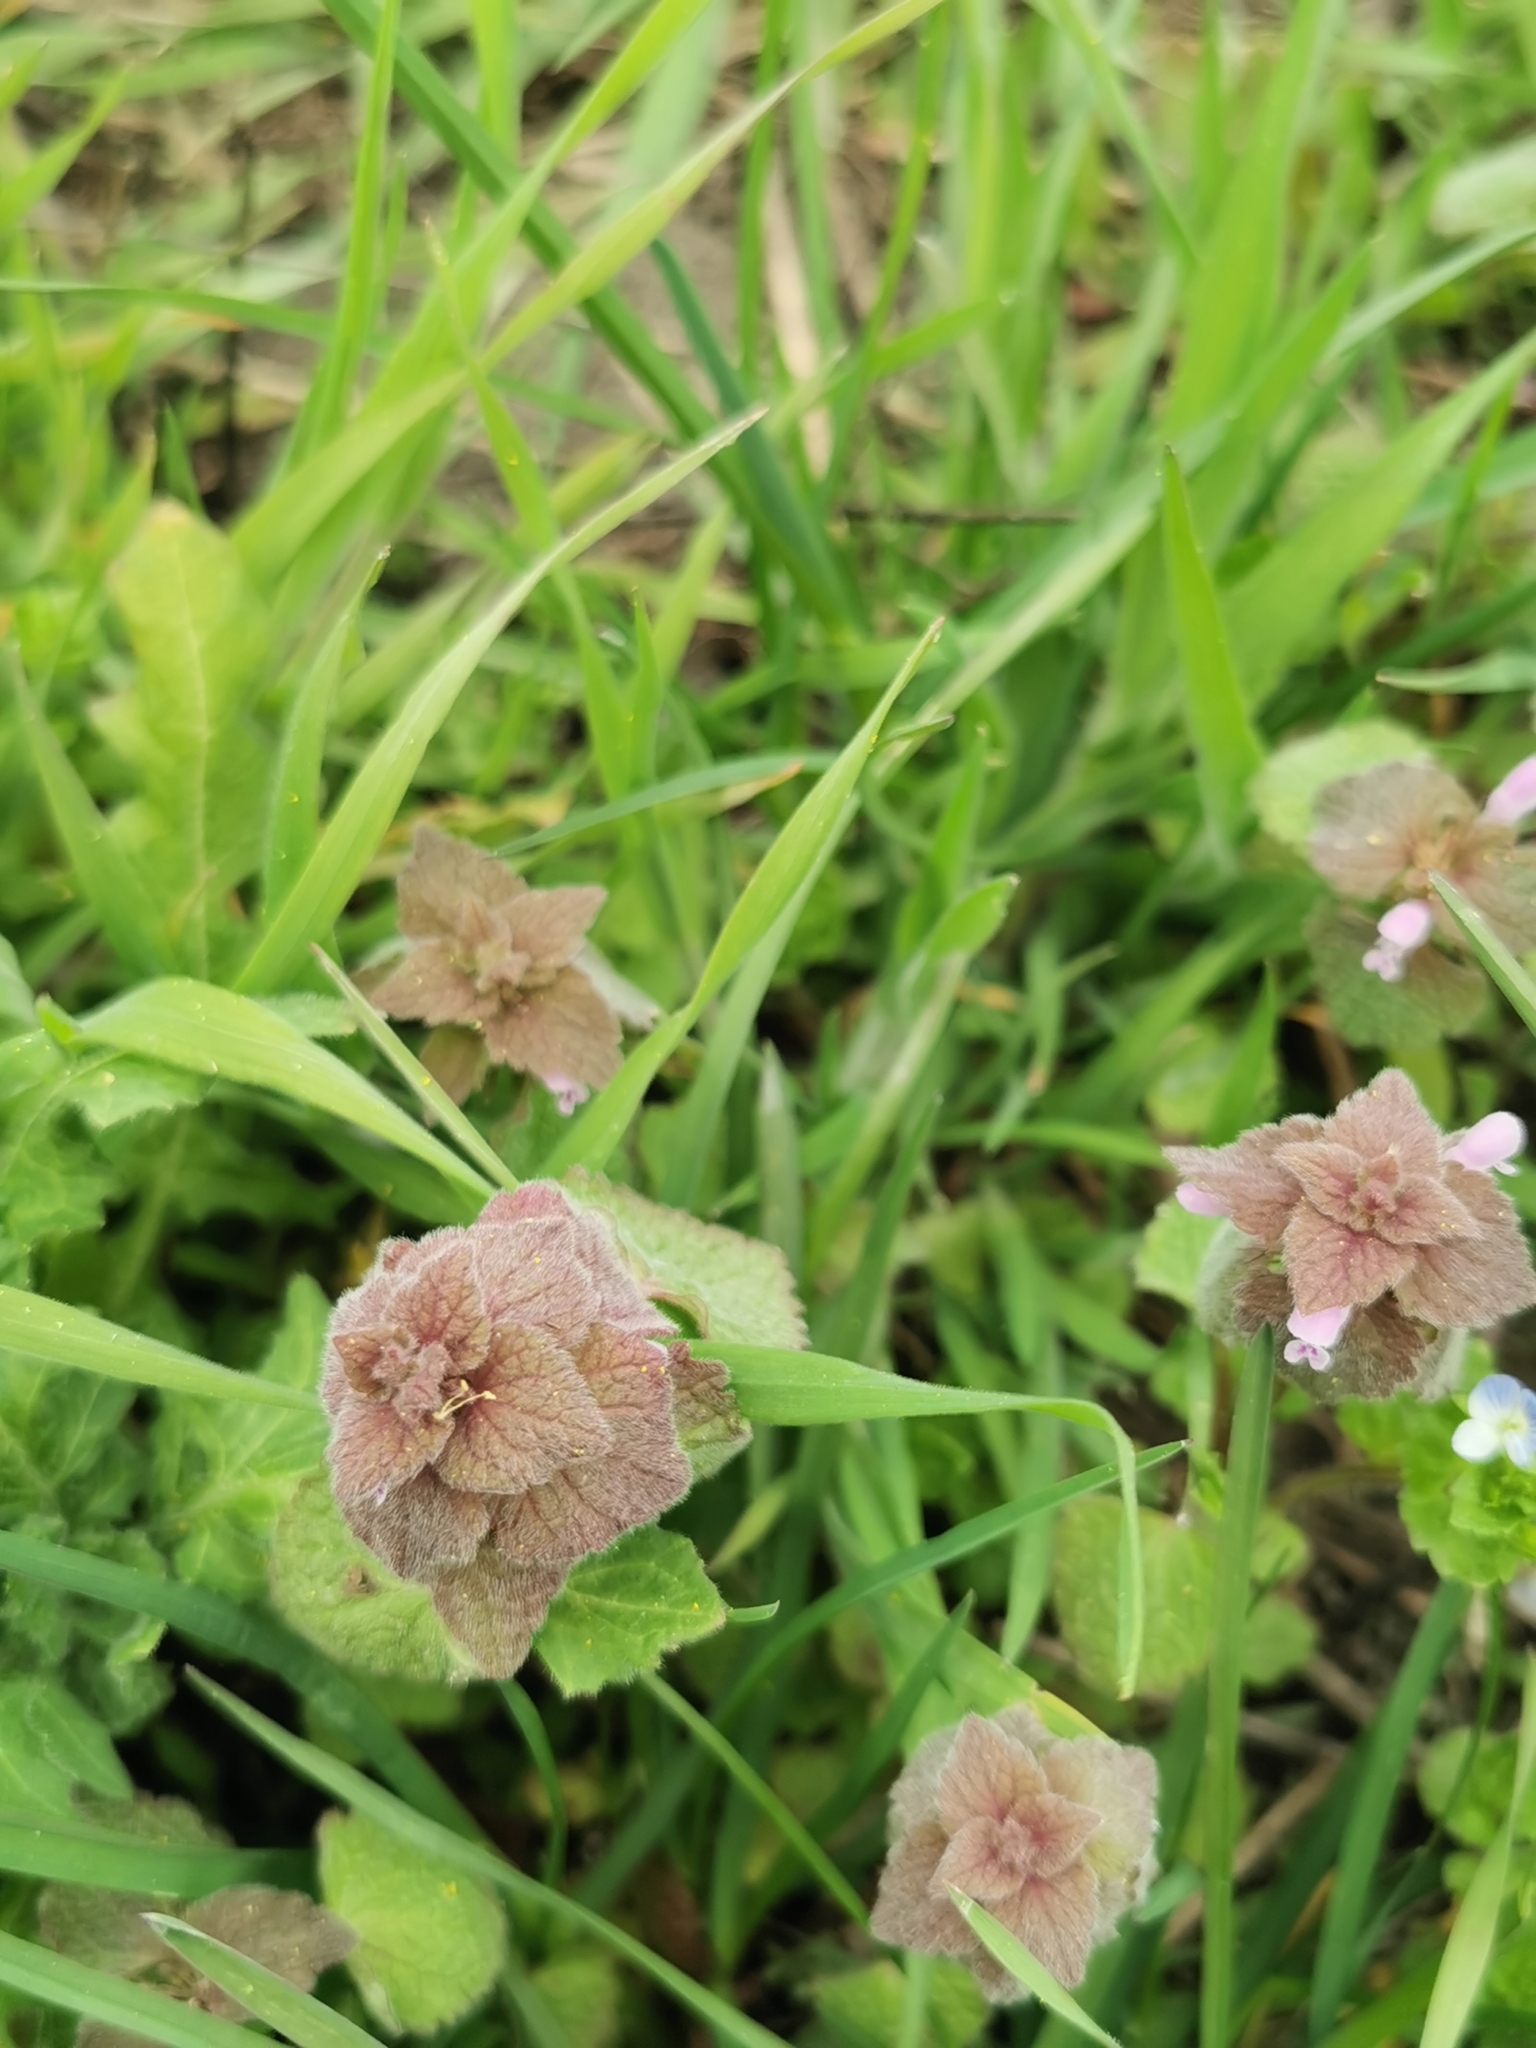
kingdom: Plantae
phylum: Tracheophyta
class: Magnoliopsida
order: Lamiales
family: Lamiaceae
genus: Lamium
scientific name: Lamium purpureum
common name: Red dead-nettle
